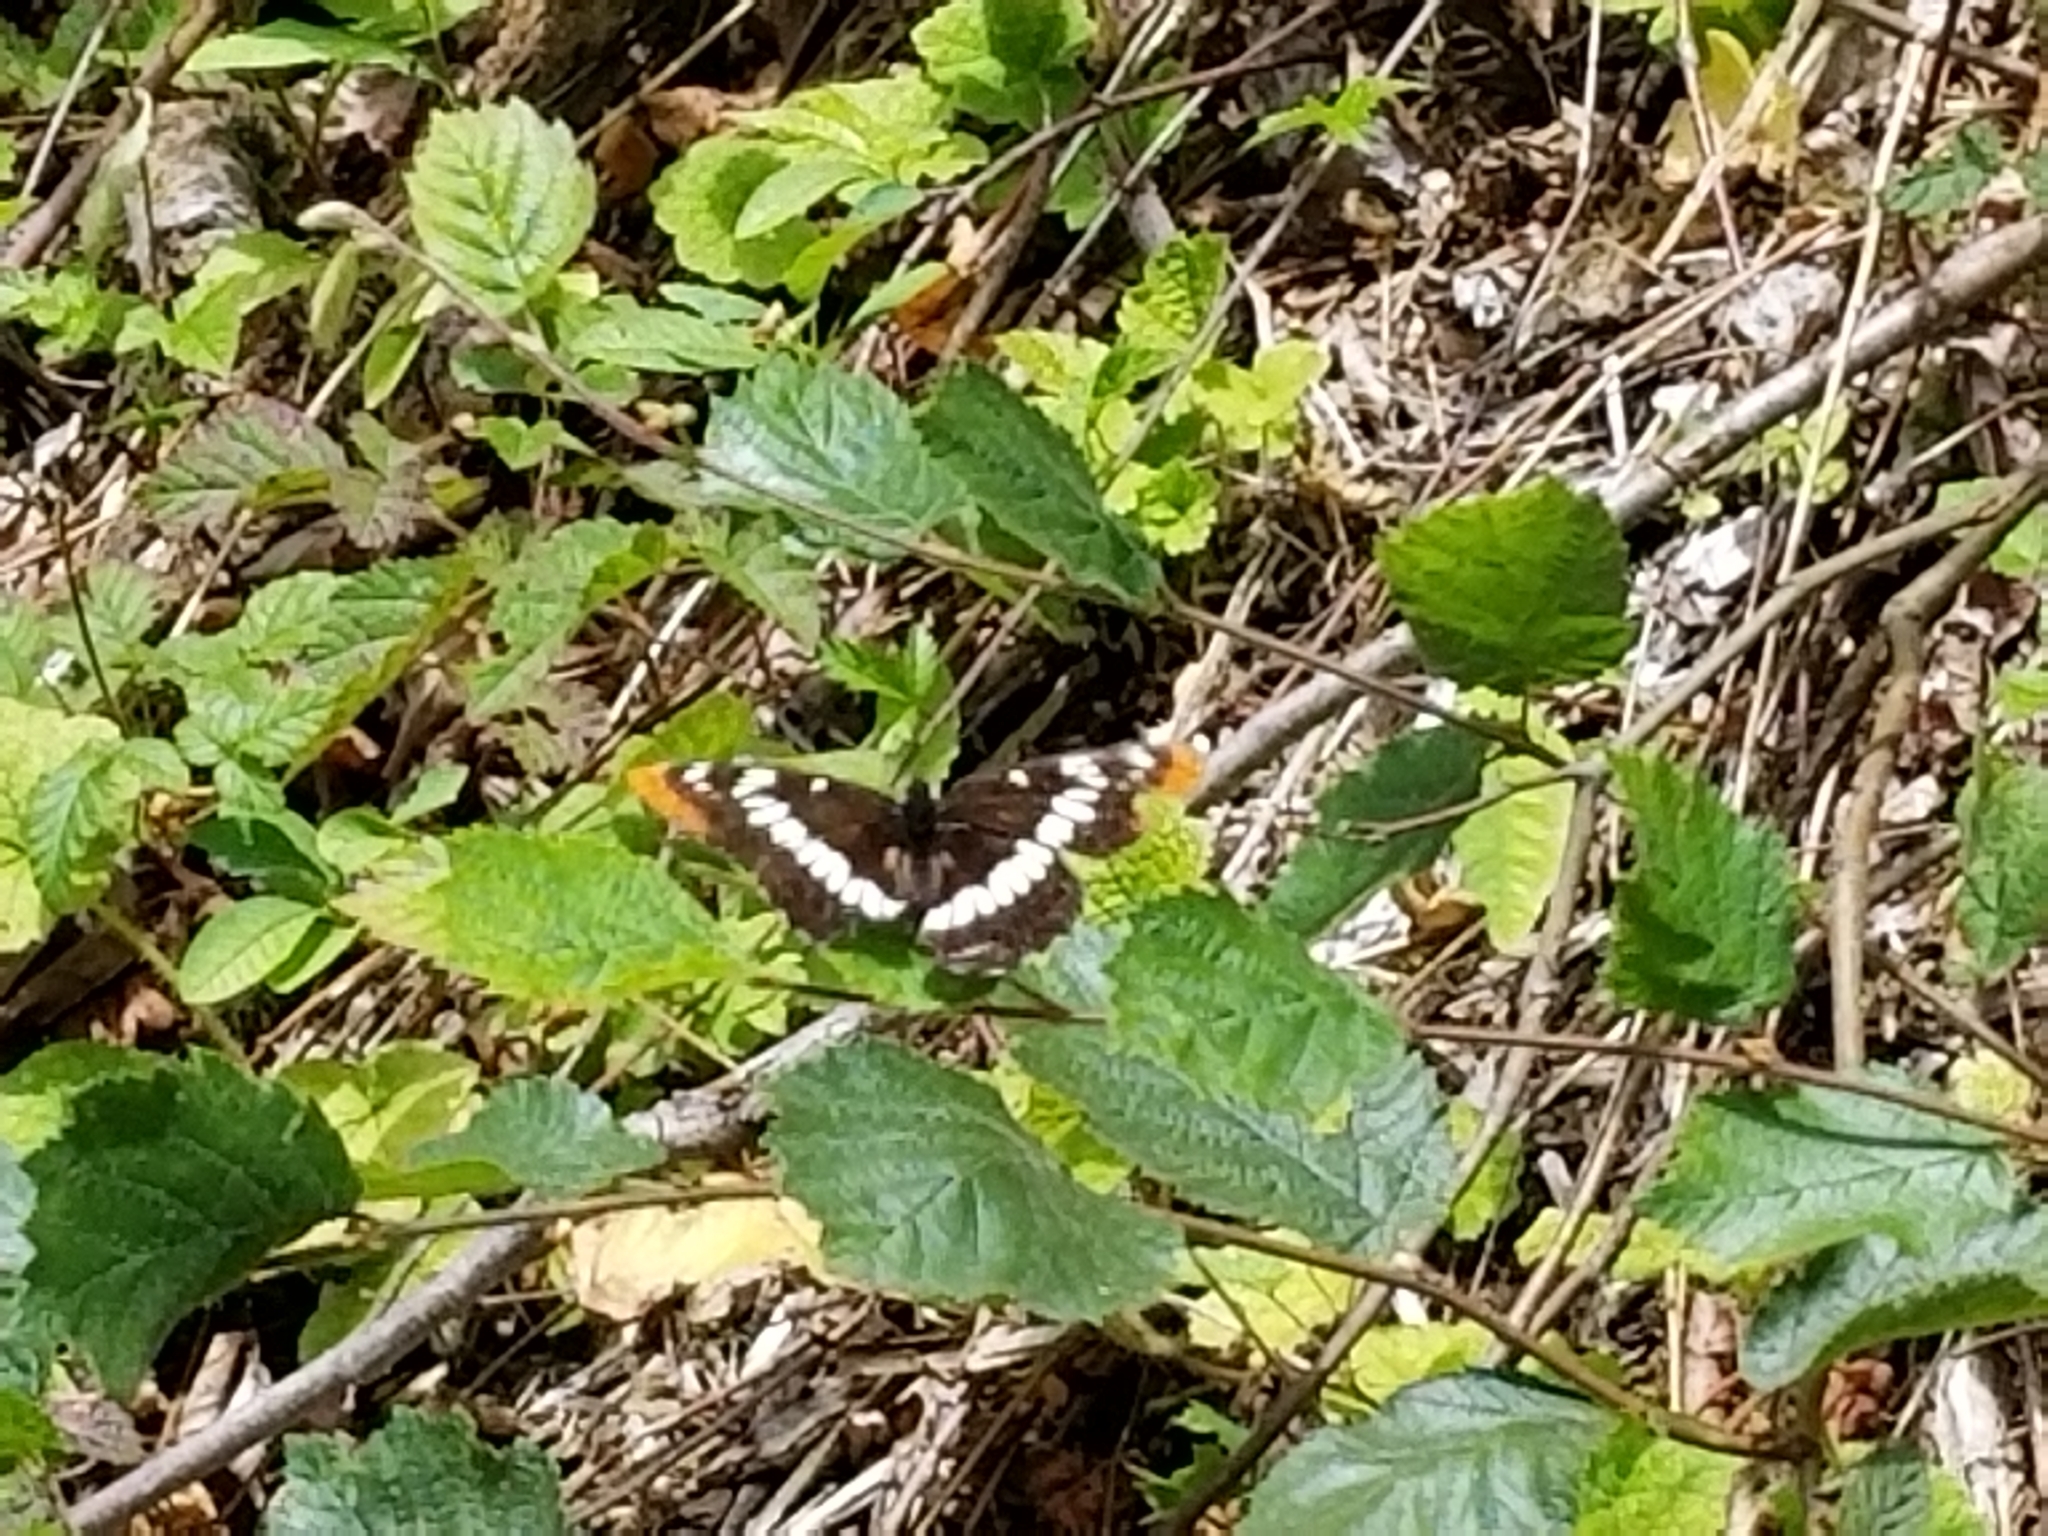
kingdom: Animalia
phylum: Arthropoda
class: Insecta
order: Lepidoptera
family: Nymphalidae
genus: Limenitis
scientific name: Limenitis lorquini
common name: Lorquin's admiral
